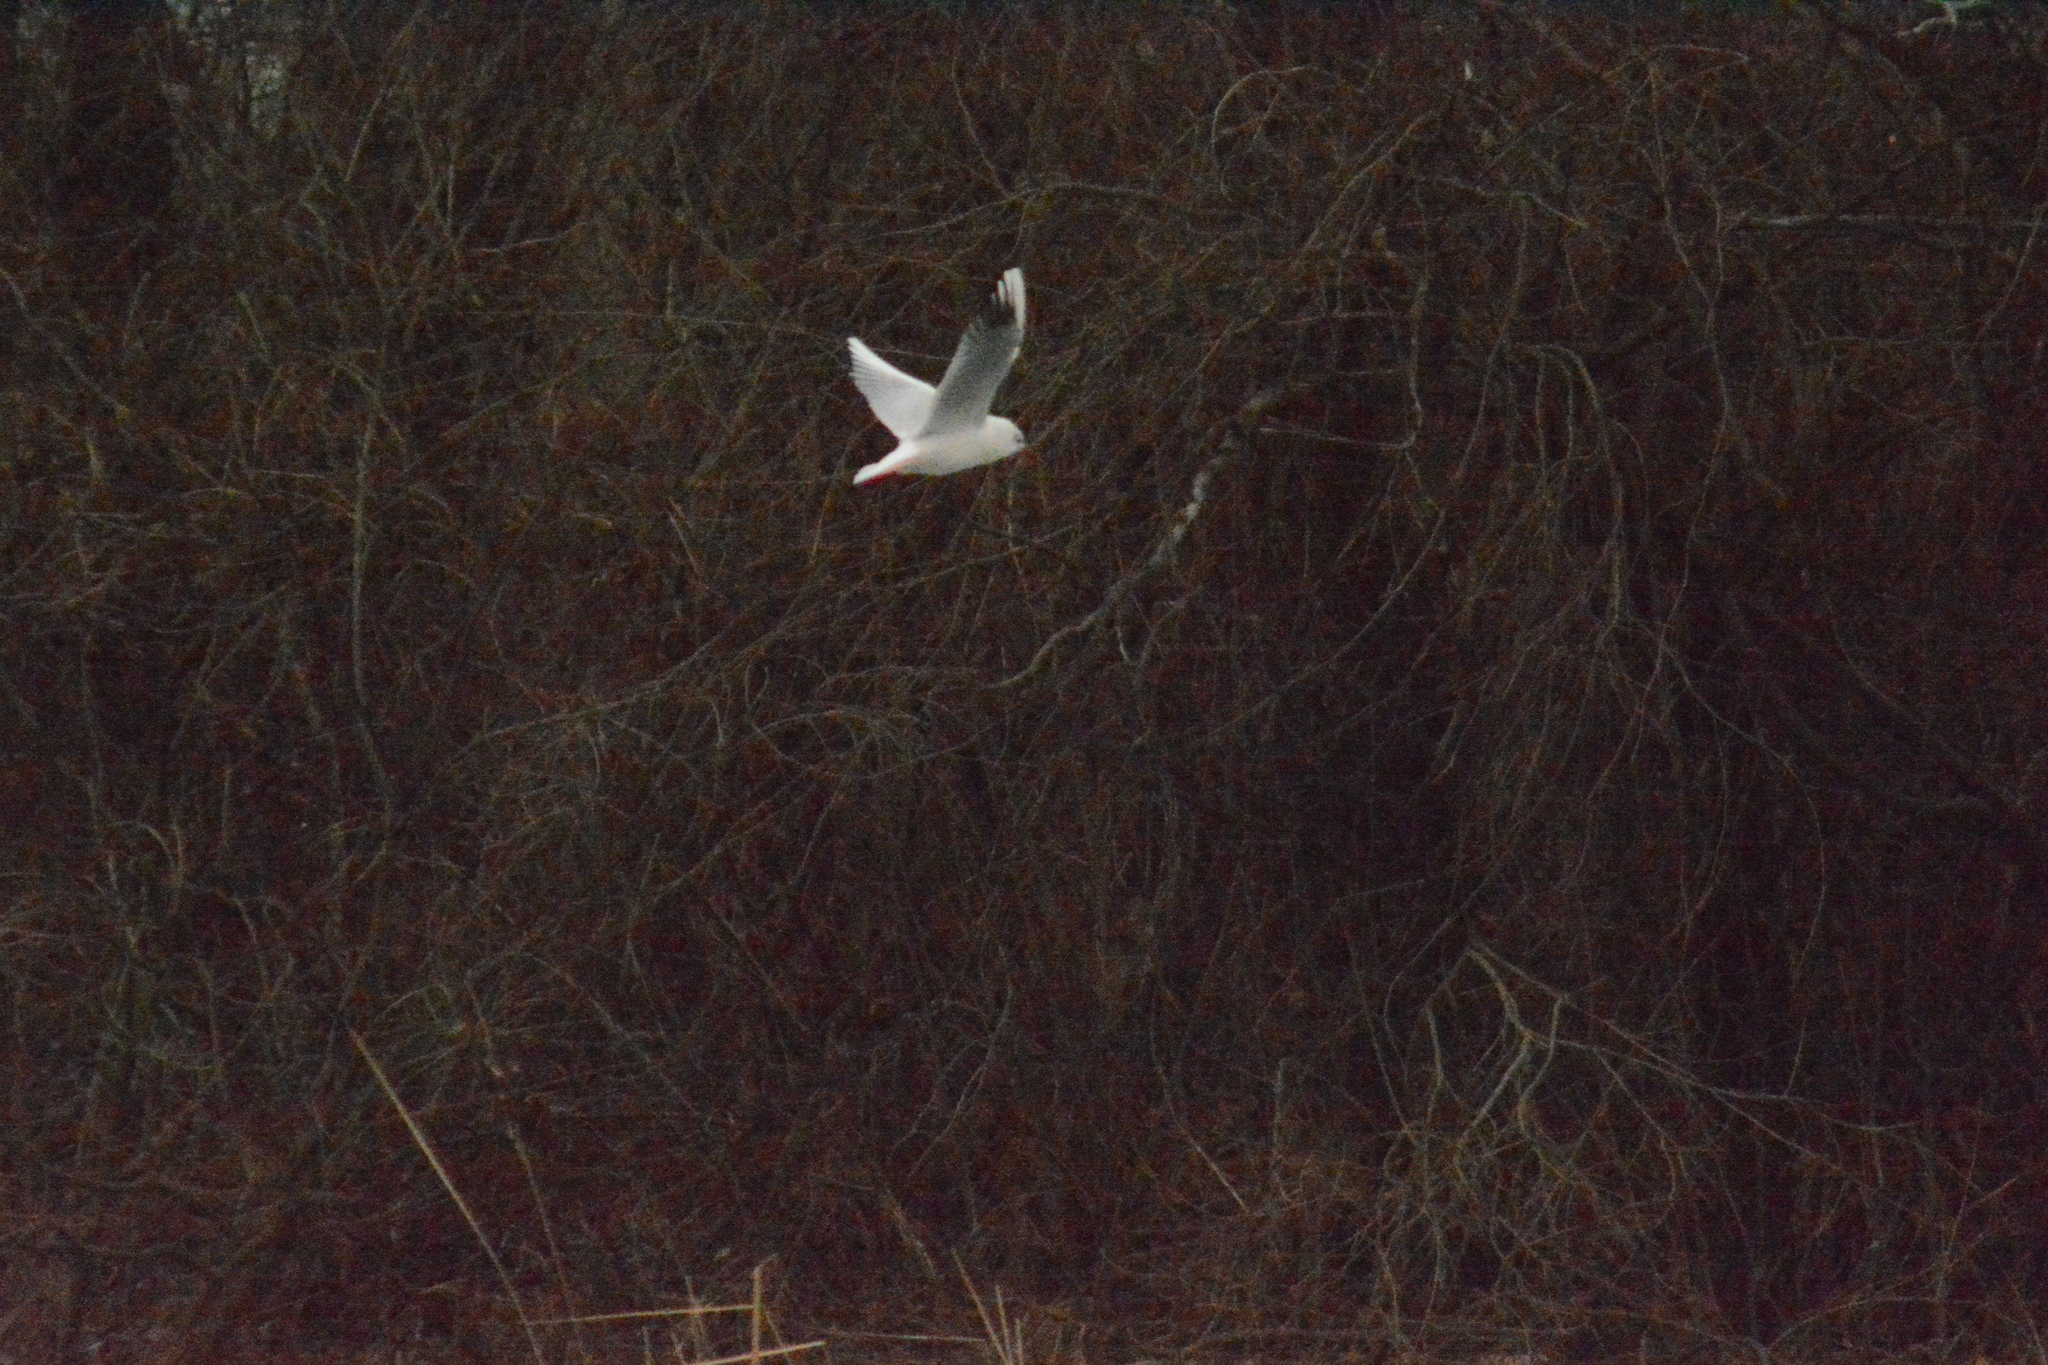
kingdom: Animalia
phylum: Chordata
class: Aves
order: Charadriiformes
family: Laridae
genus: Chroicocephalus
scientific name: Chroicocephalus ridibundus
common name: Black-headed gull
